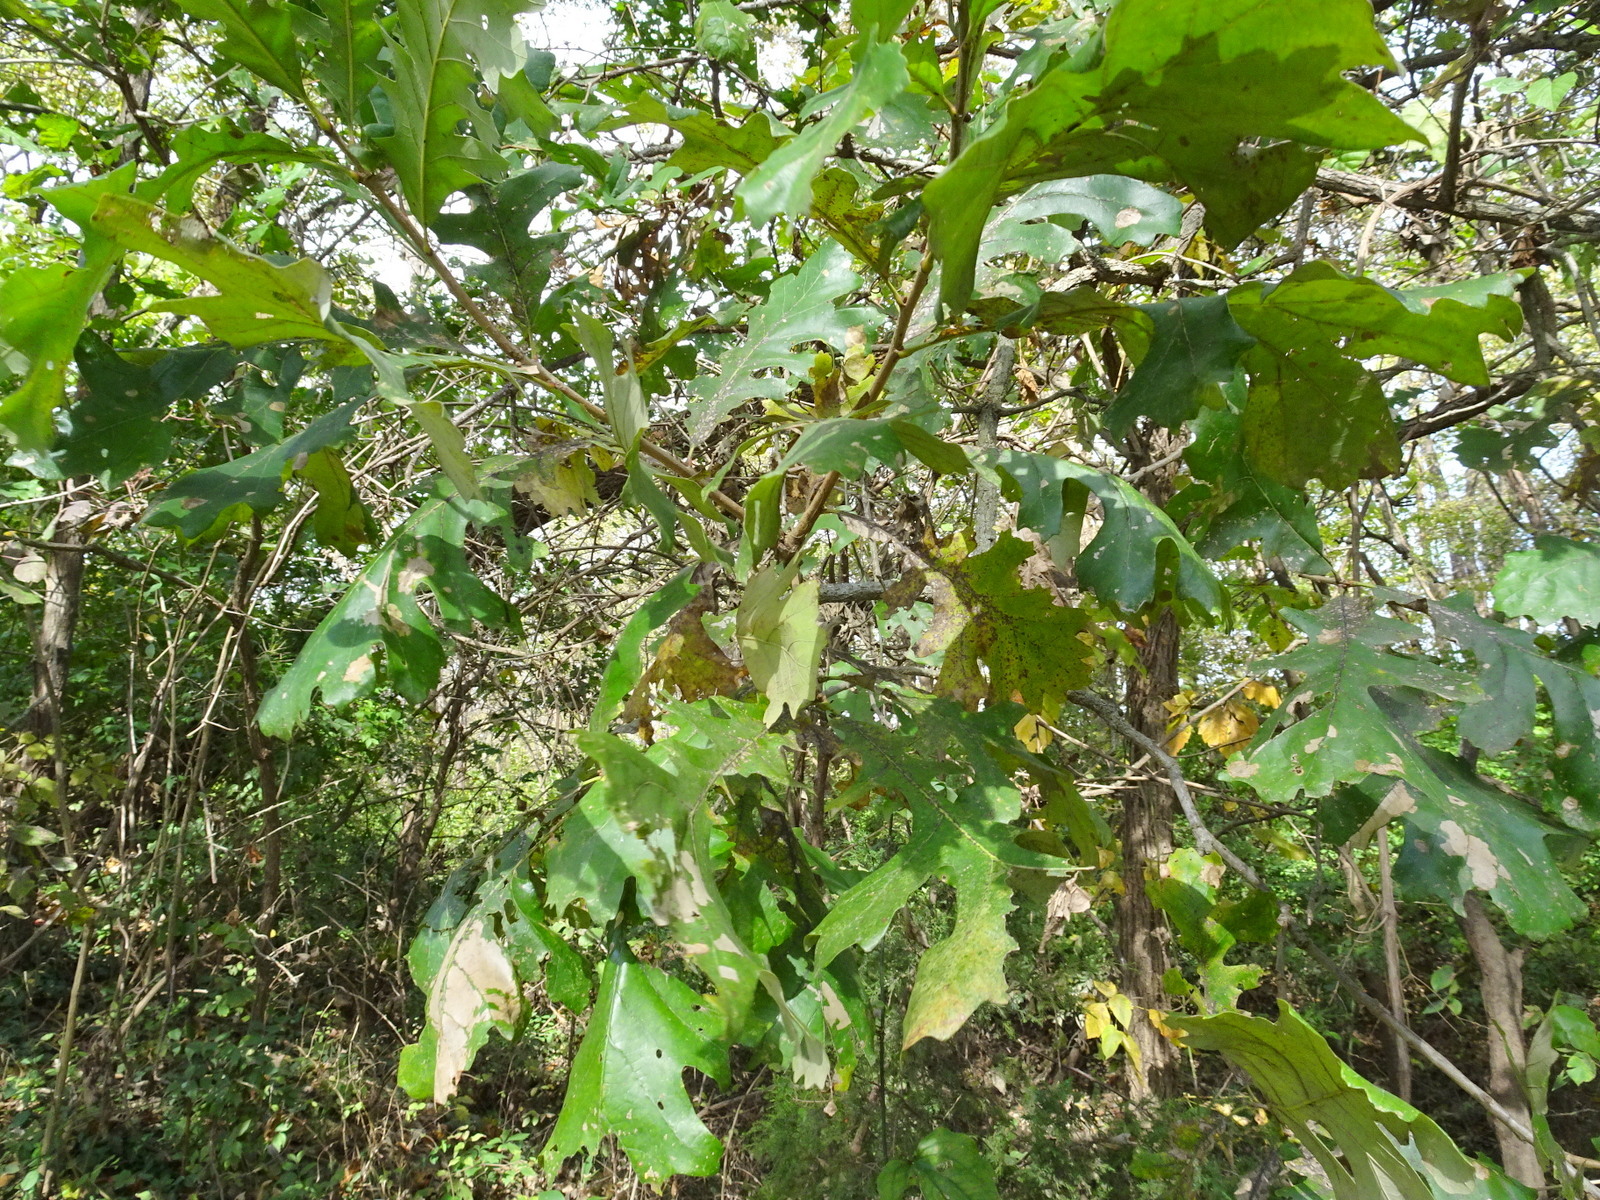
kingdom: Plantae
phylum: Tracheophyta
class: Magnoliopsida
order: Fagales
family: Fagaceae
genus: Quercus
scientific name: Quercus macrocarpa
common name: Bur oak
